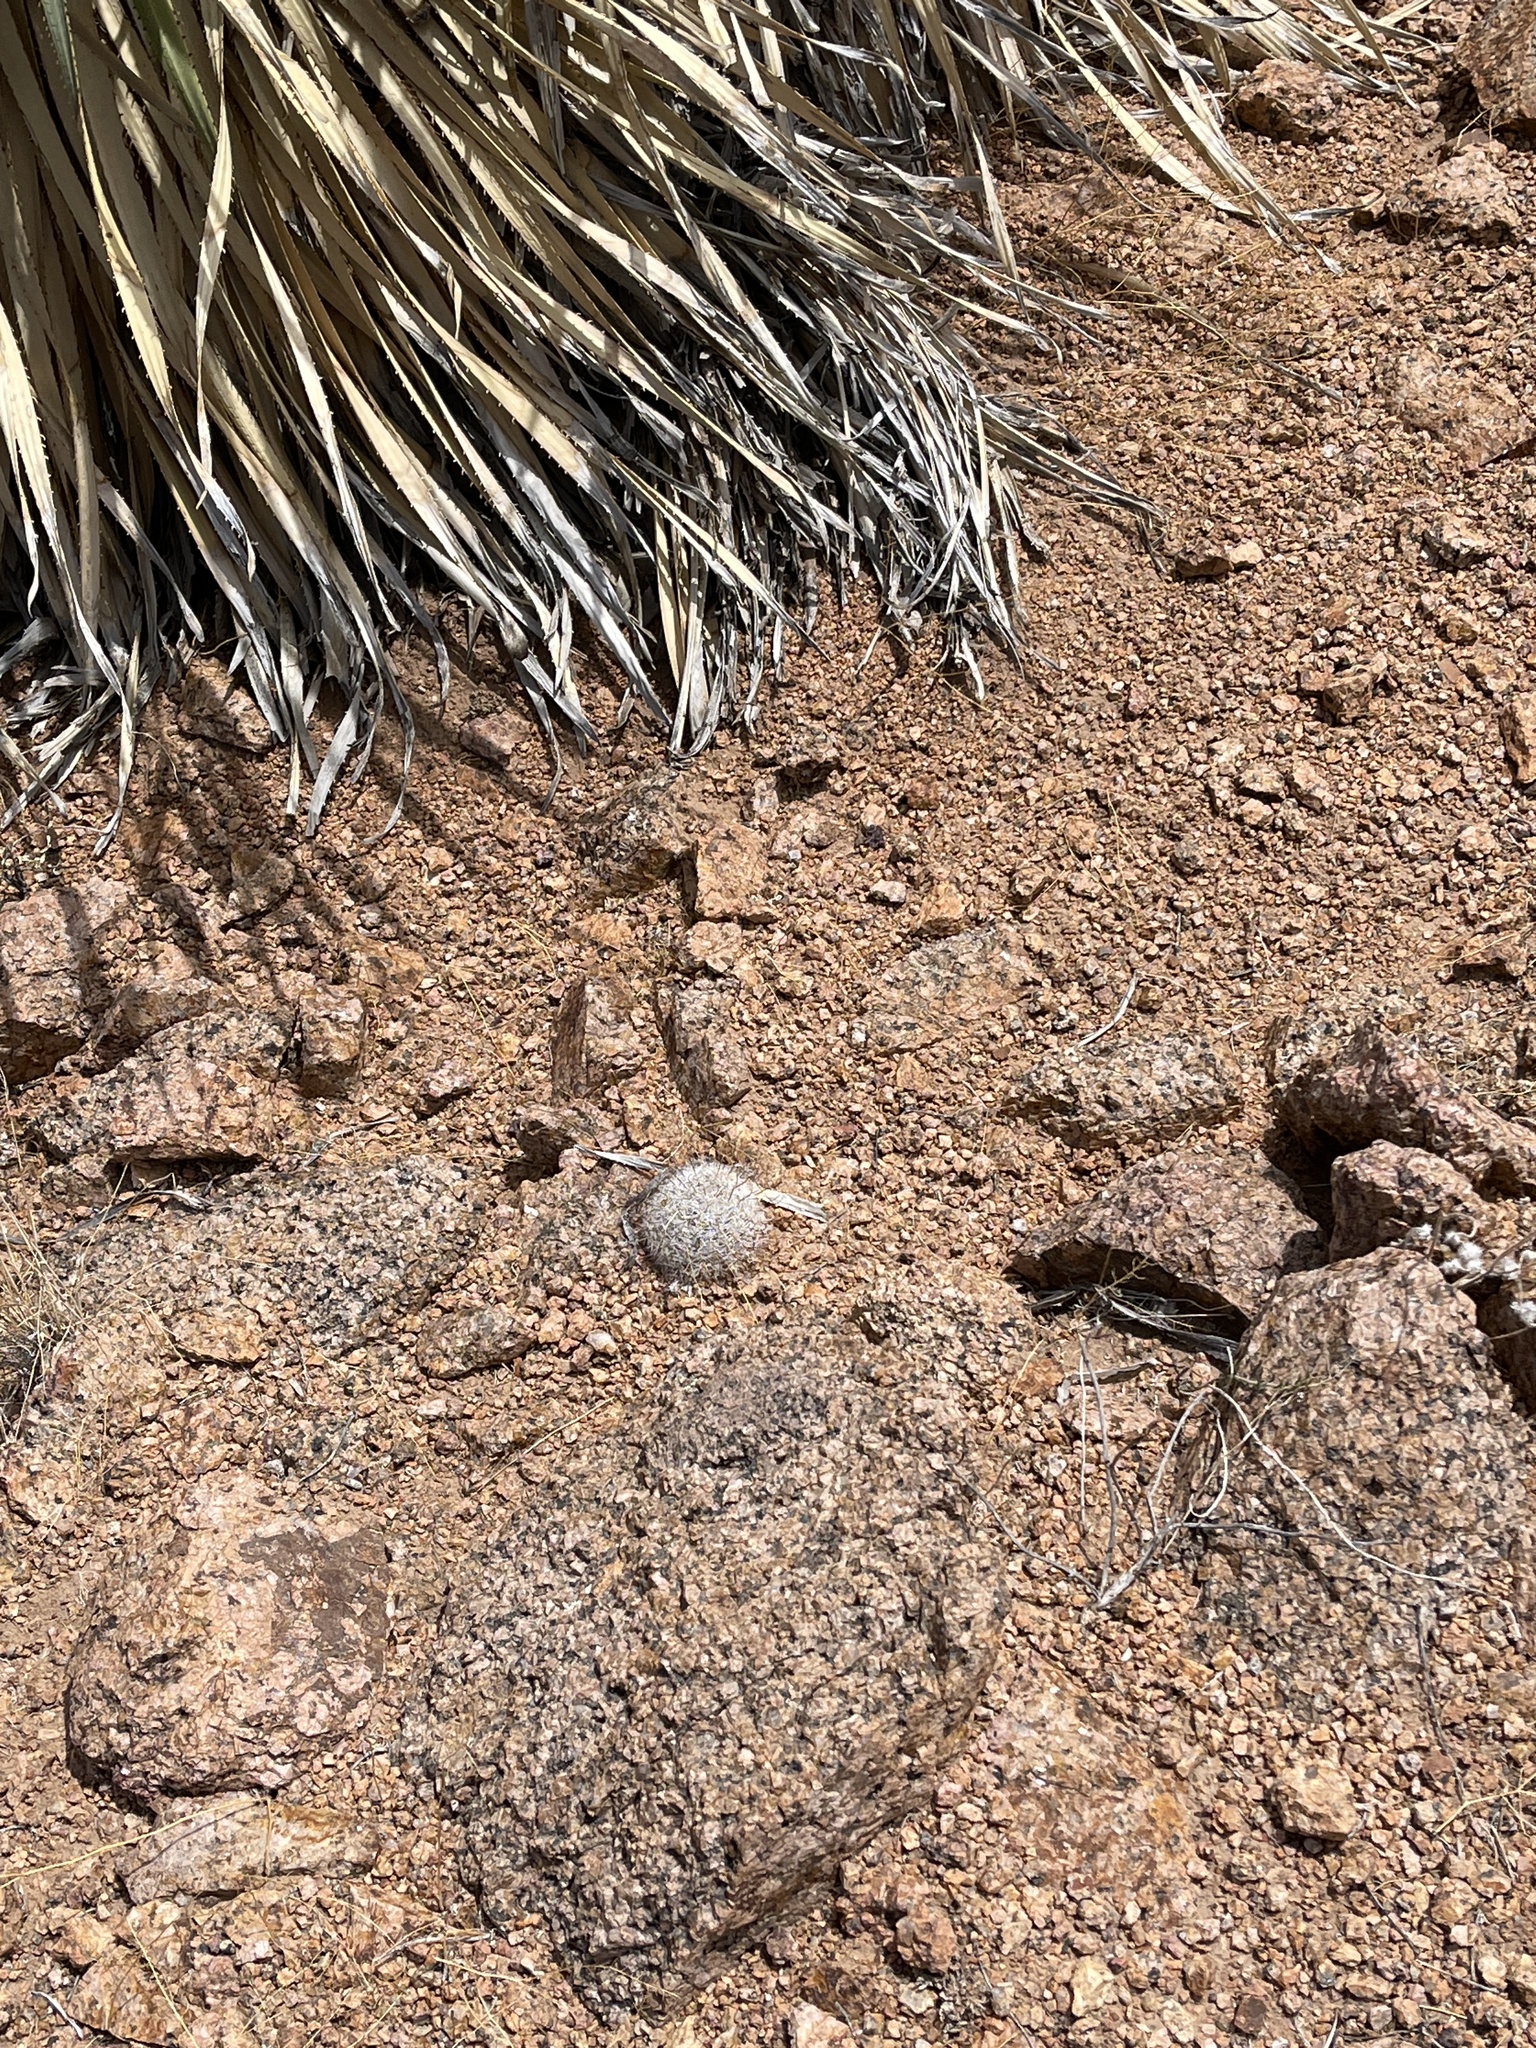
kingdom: Plantae
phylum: Tracheophyta
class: Magnoliopsida
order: Caryophyllales
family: Cactaceae
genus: Cochemiea
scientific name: Cochemiea grahamii
